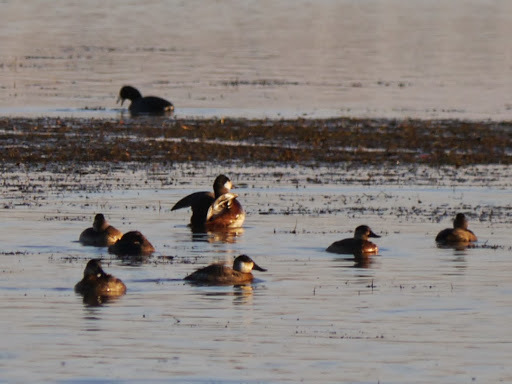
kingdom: Animalia
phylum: Chordata
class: Aves
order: Anseriformes
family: Anatidae
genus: Oxyura
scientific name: Oxyura jamaicensis
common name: Ruddy duck
